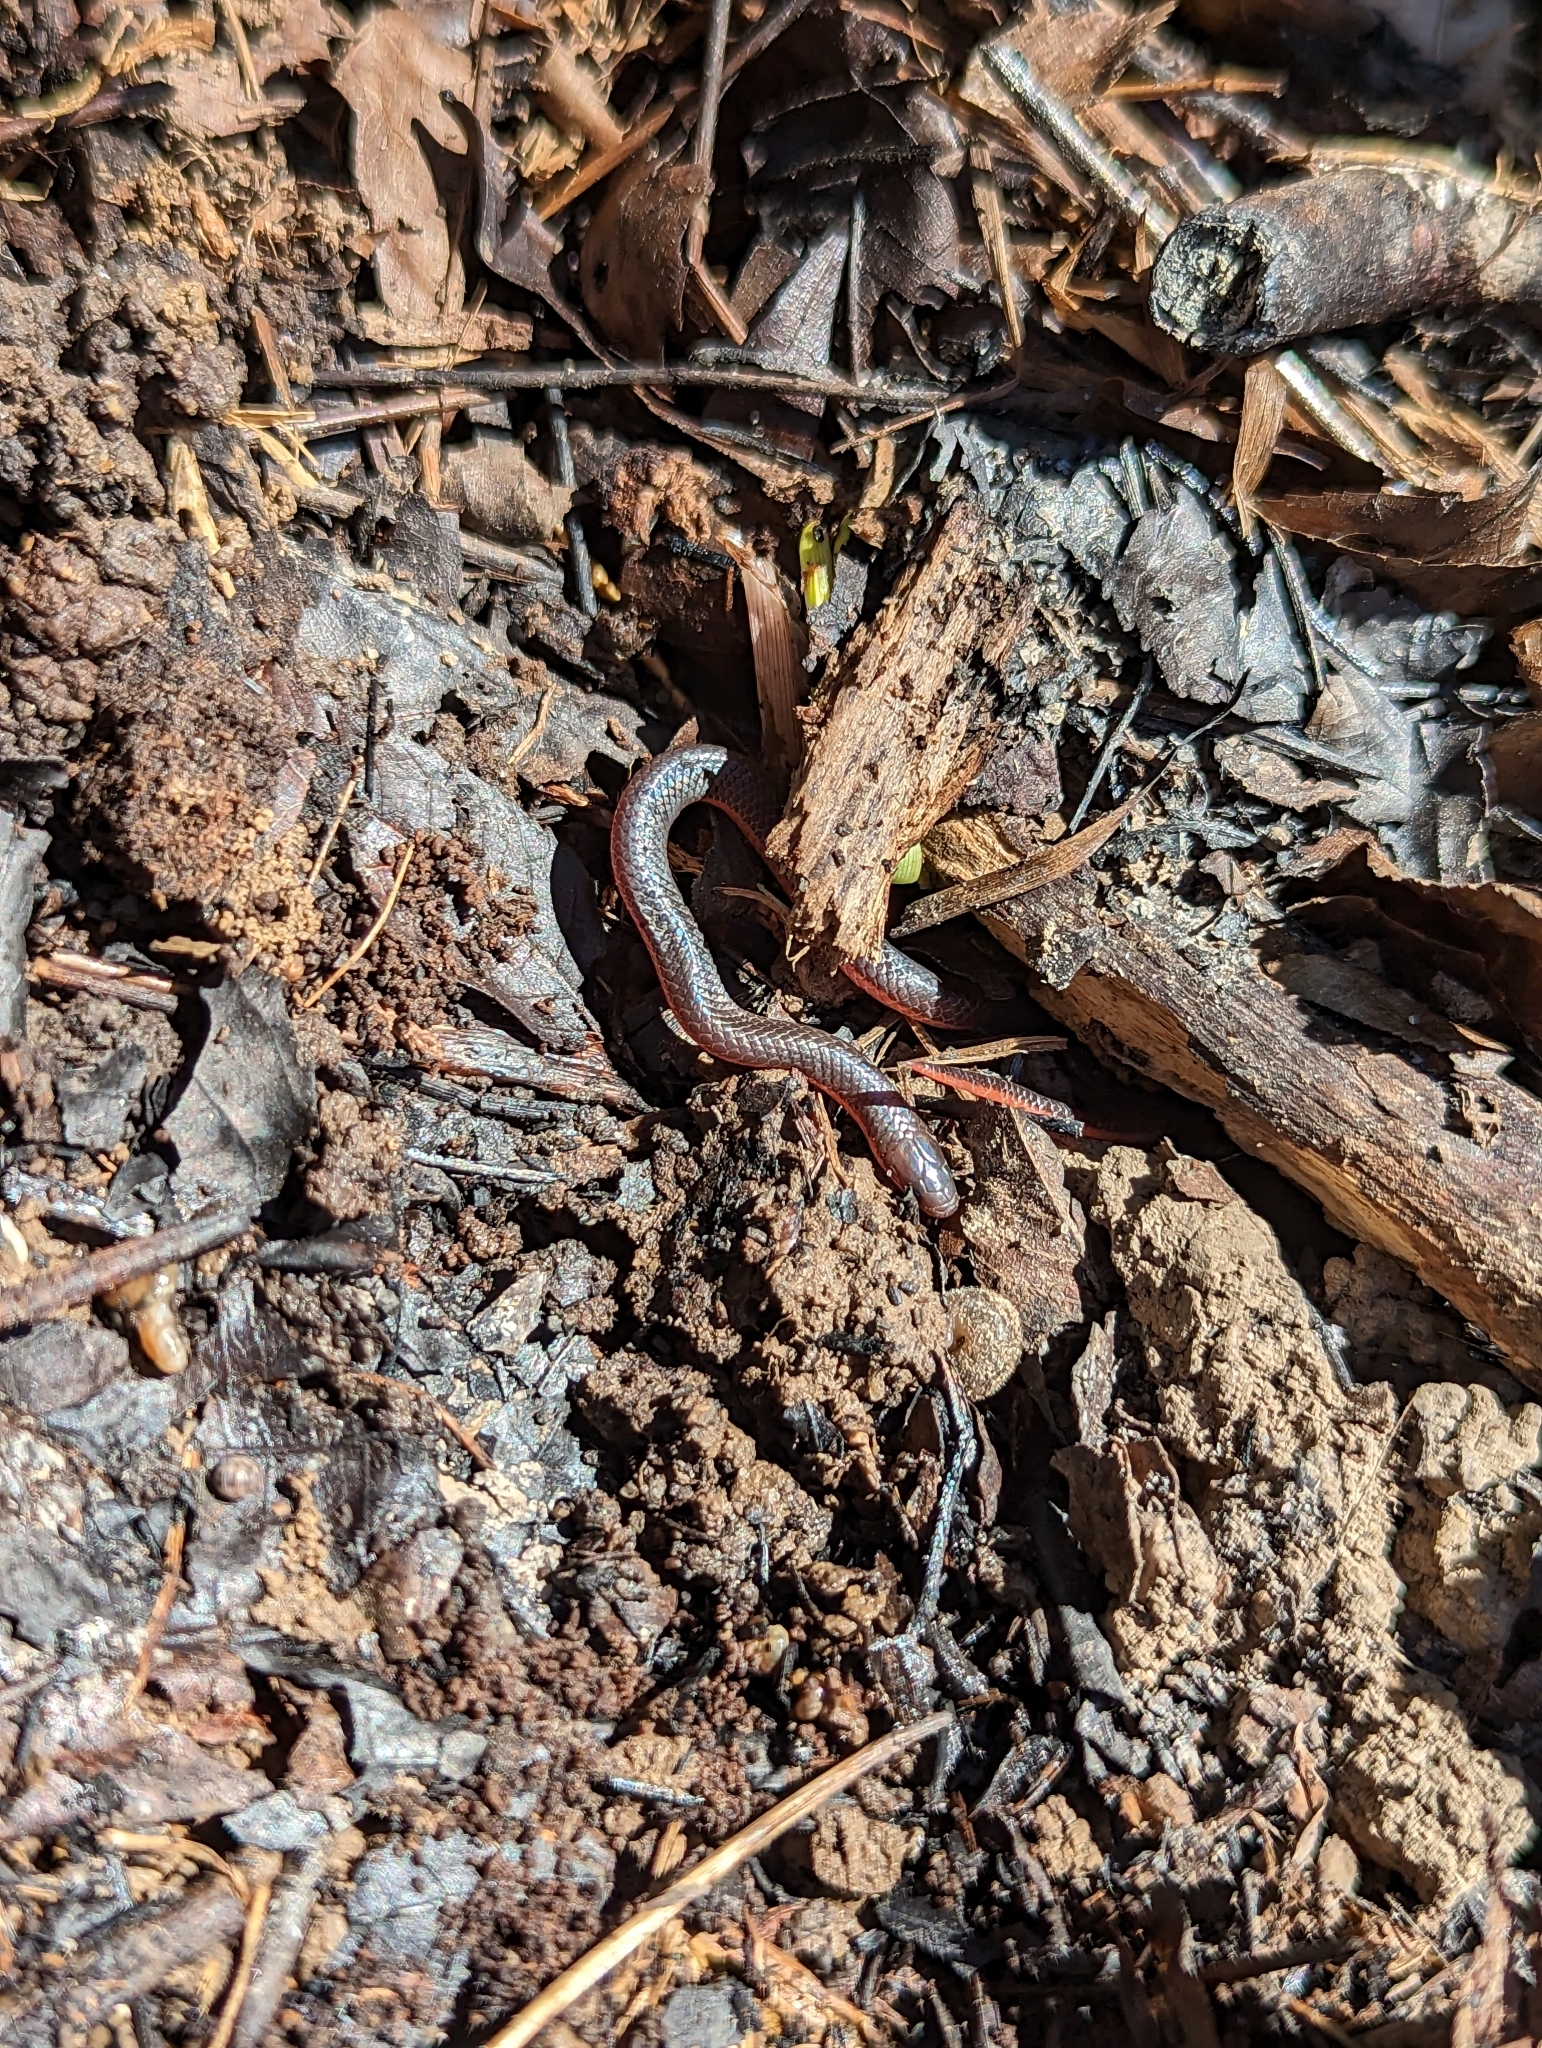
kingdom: Animalia
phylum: Chordata
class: Squamata
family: Colubridae
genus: Carphophis
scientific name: Carphophis amoenus
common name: Eastern worm snake
